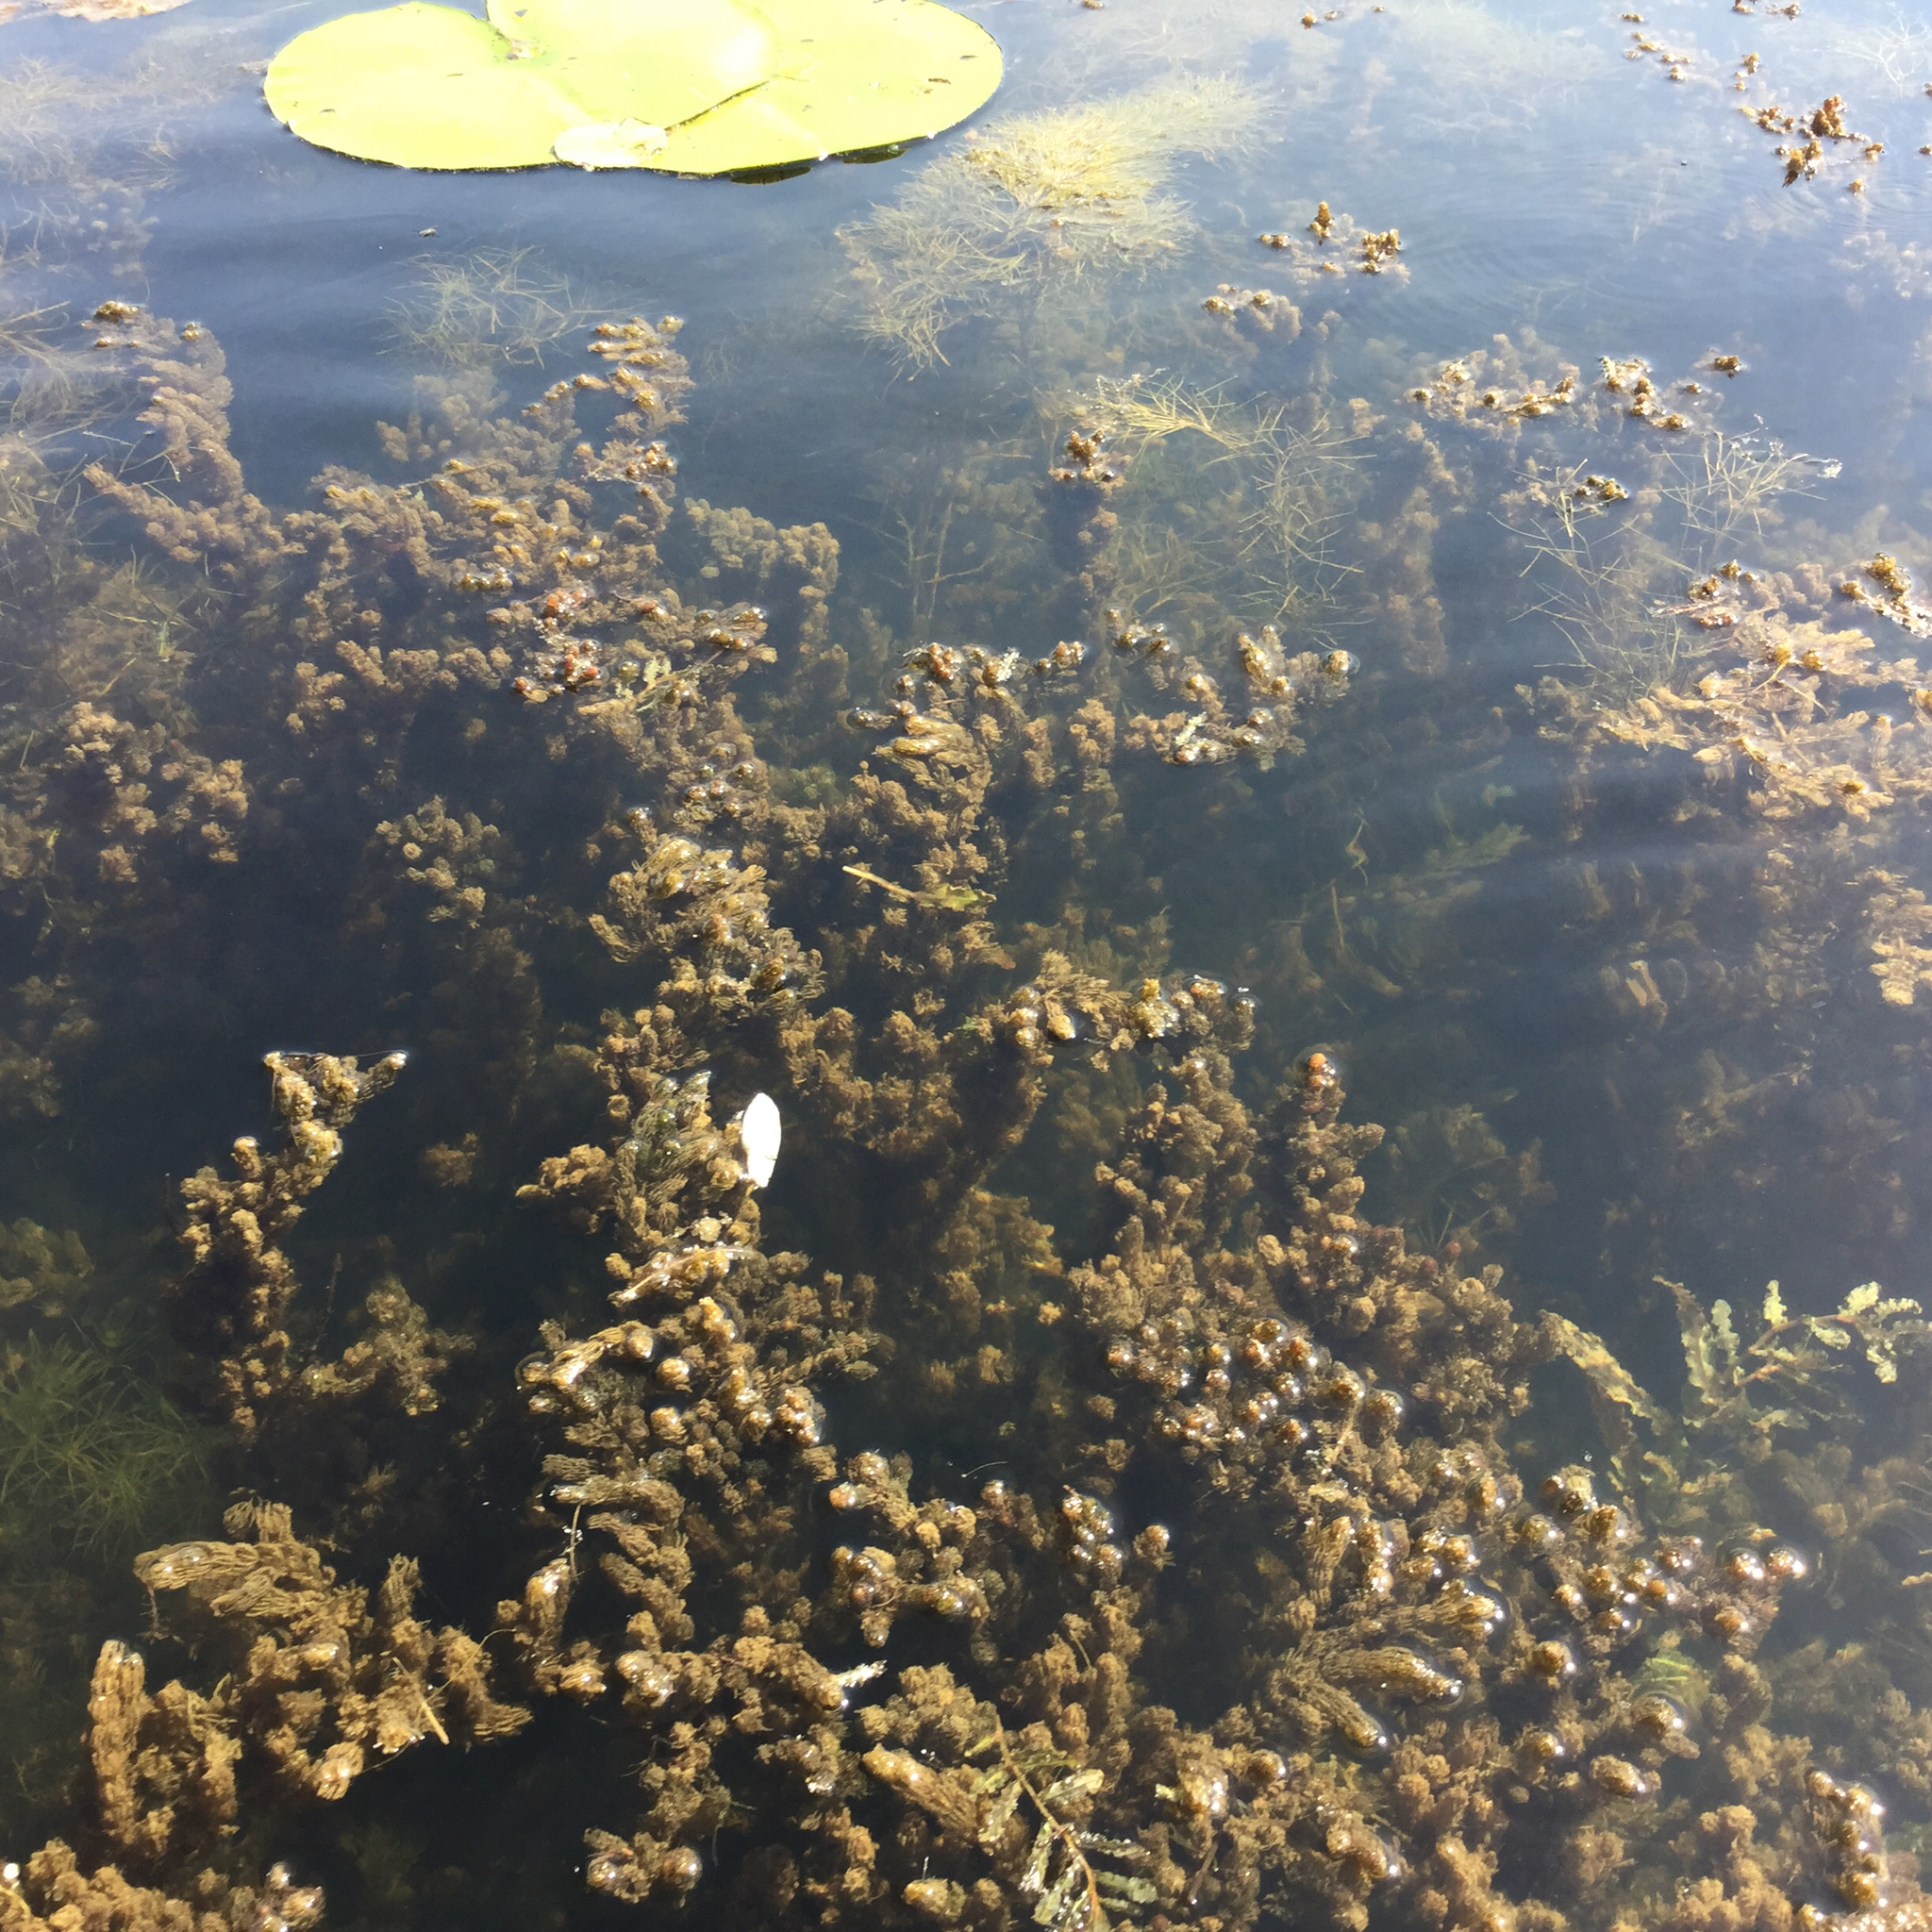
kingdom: Plantae
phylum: Tracheophyta
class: Magnoliopsida
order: Ceratophyllales
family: Ceratophyllaceae
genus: Ceratophyllum
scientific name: Ceratophyllum demersum
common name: Rigid hornwort
